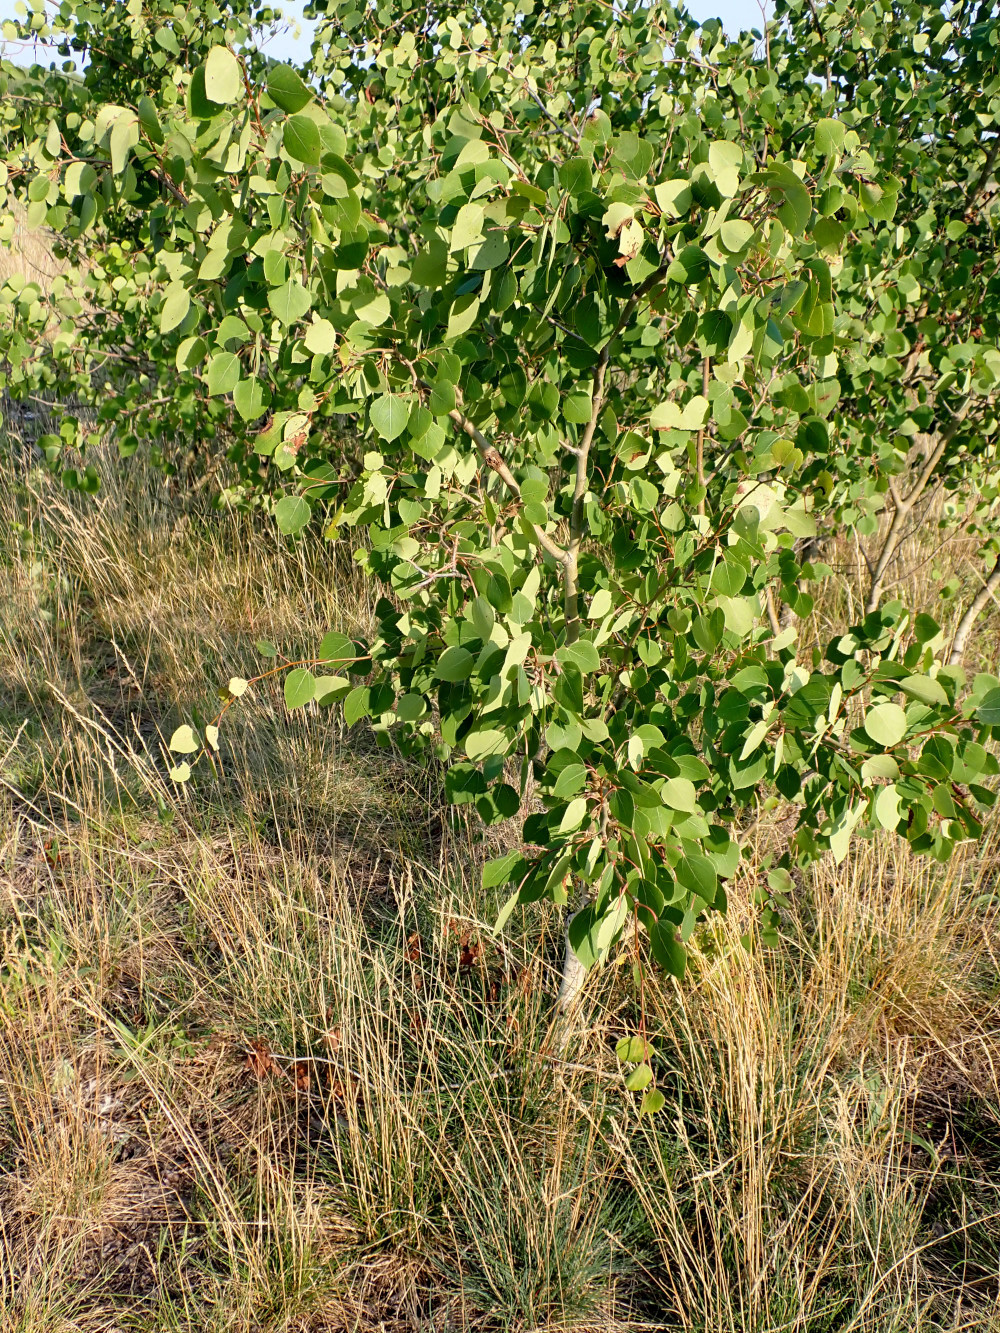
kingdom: Plantae
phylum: Tracheophyta
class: Magnoliopsida
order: Malpighiales
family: Salicaceae
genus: Populus
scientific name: Populus tremuloides
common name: Quaking aspen
